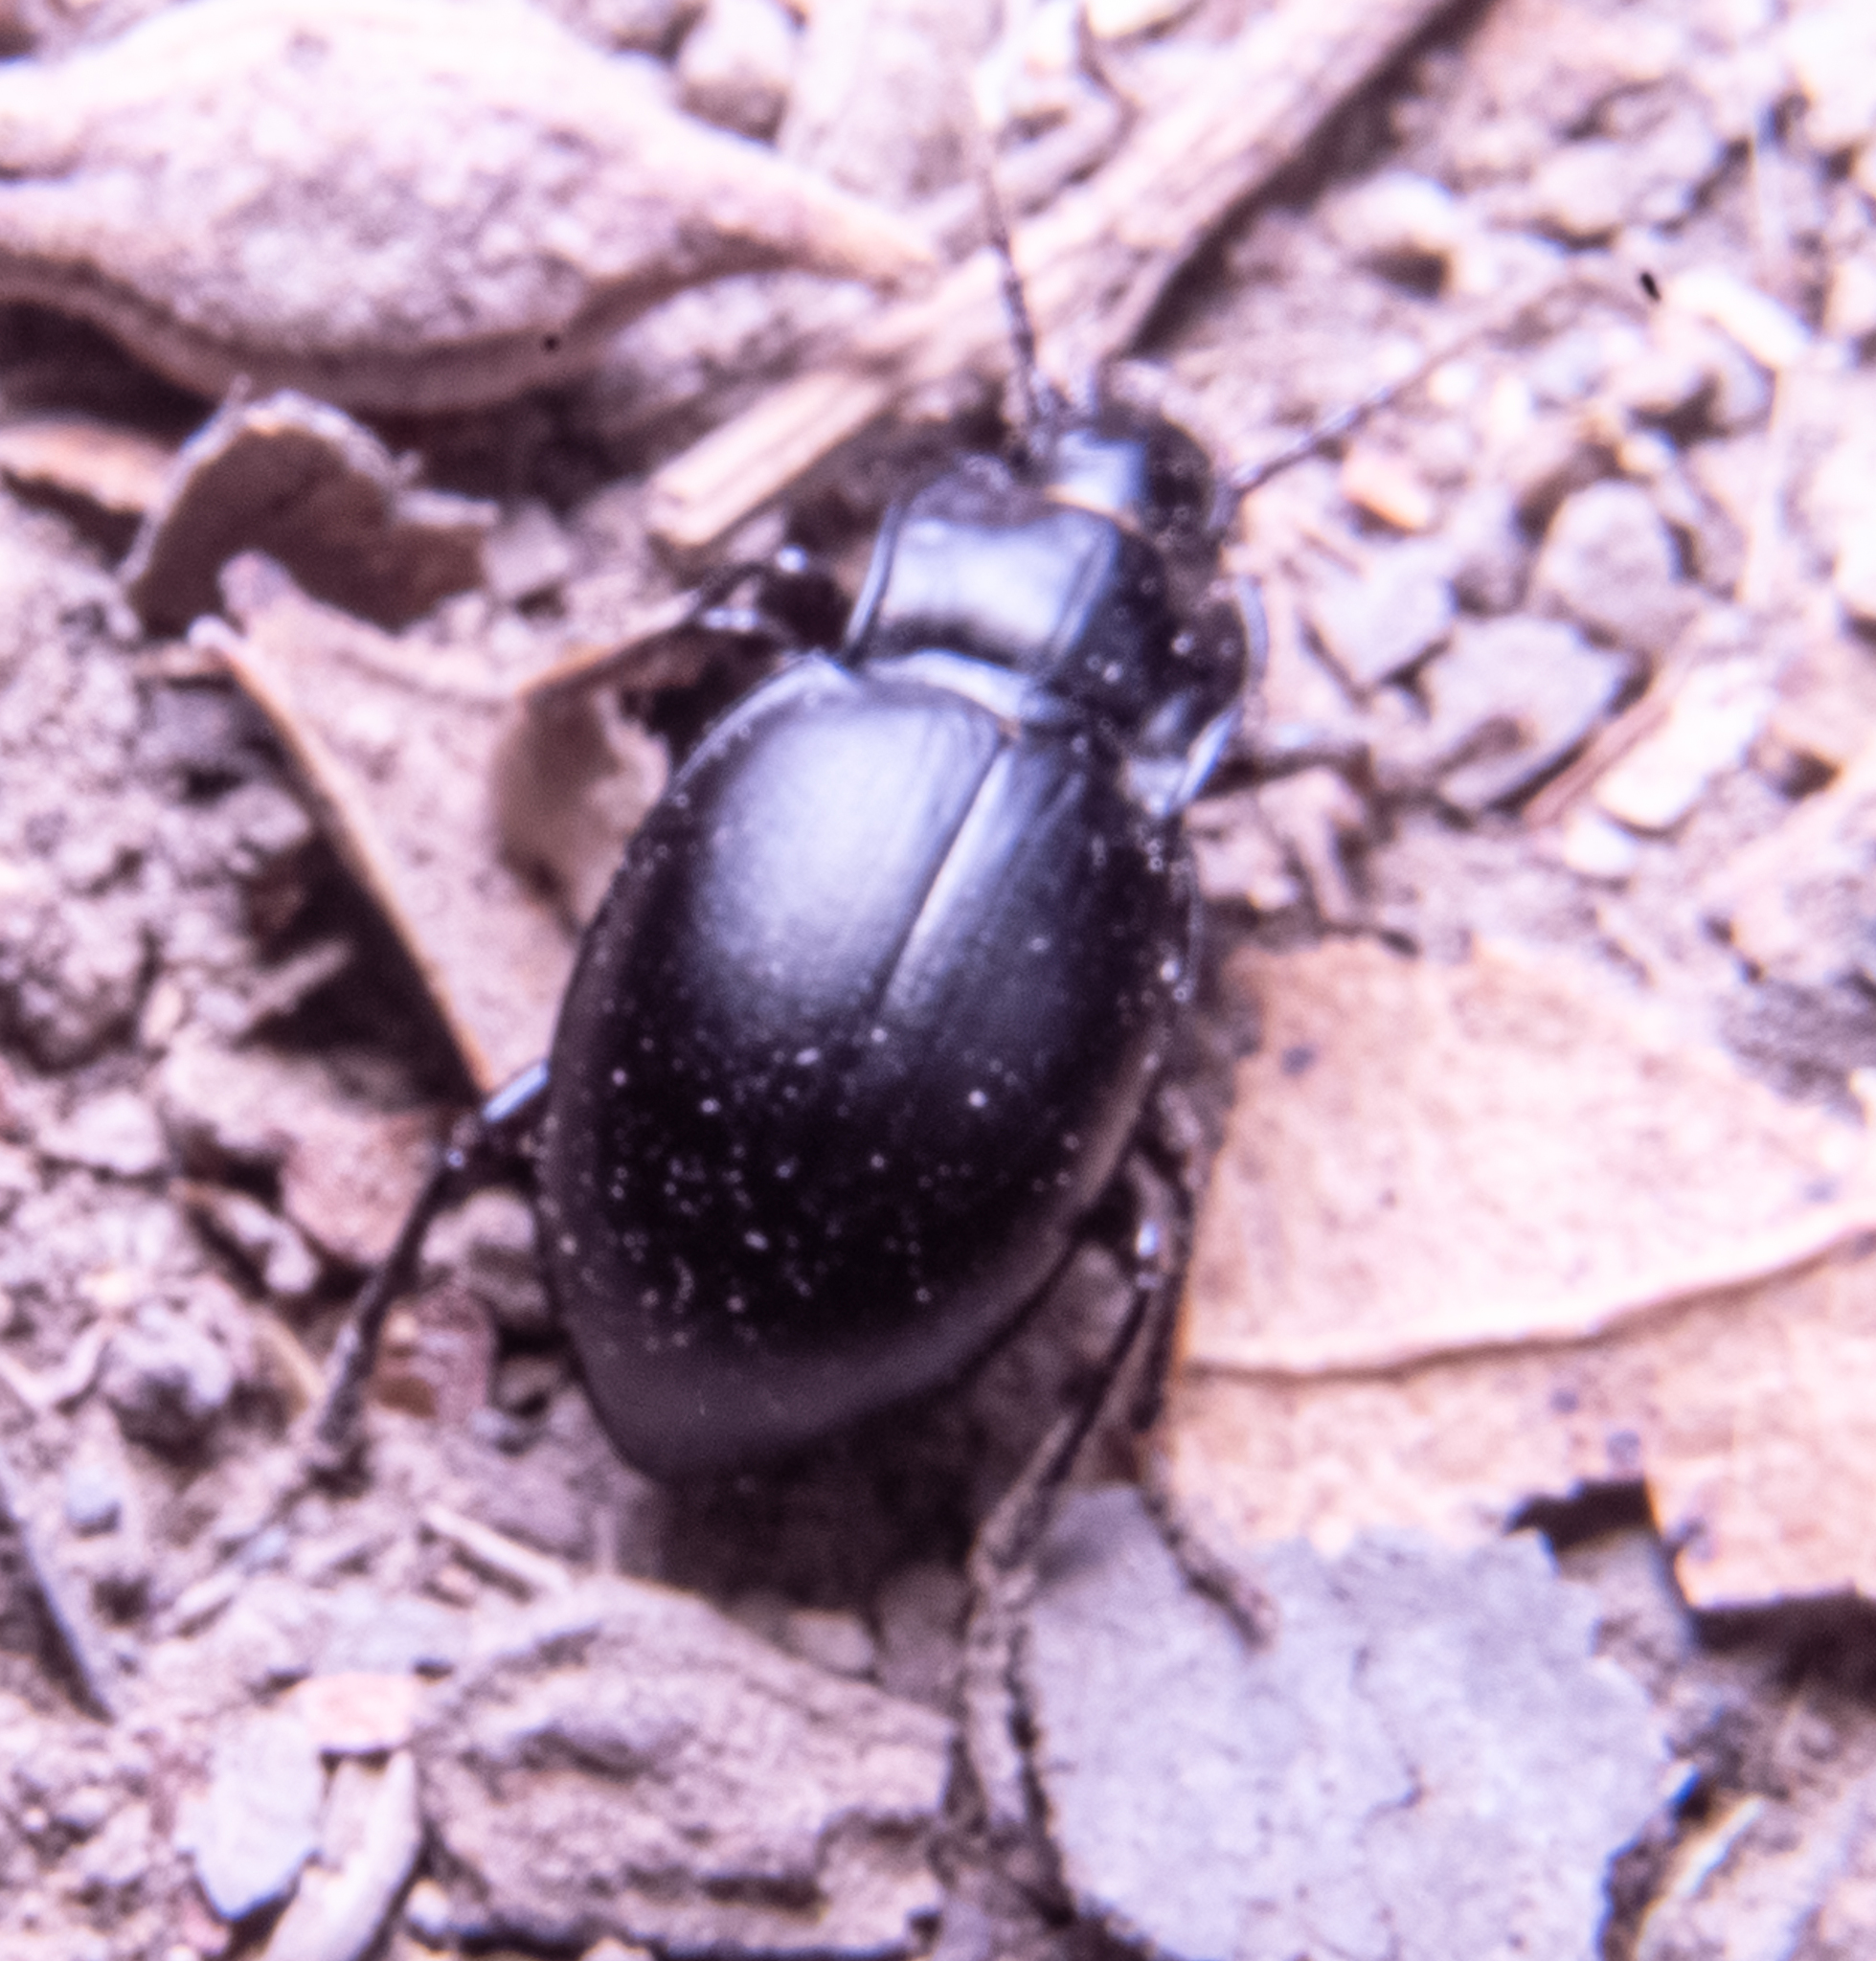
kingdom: Animalia
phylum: Arthropoda
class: Insecta
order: Coleoptera
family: Carabidae
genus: Metrius
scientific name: Metrius contractus
